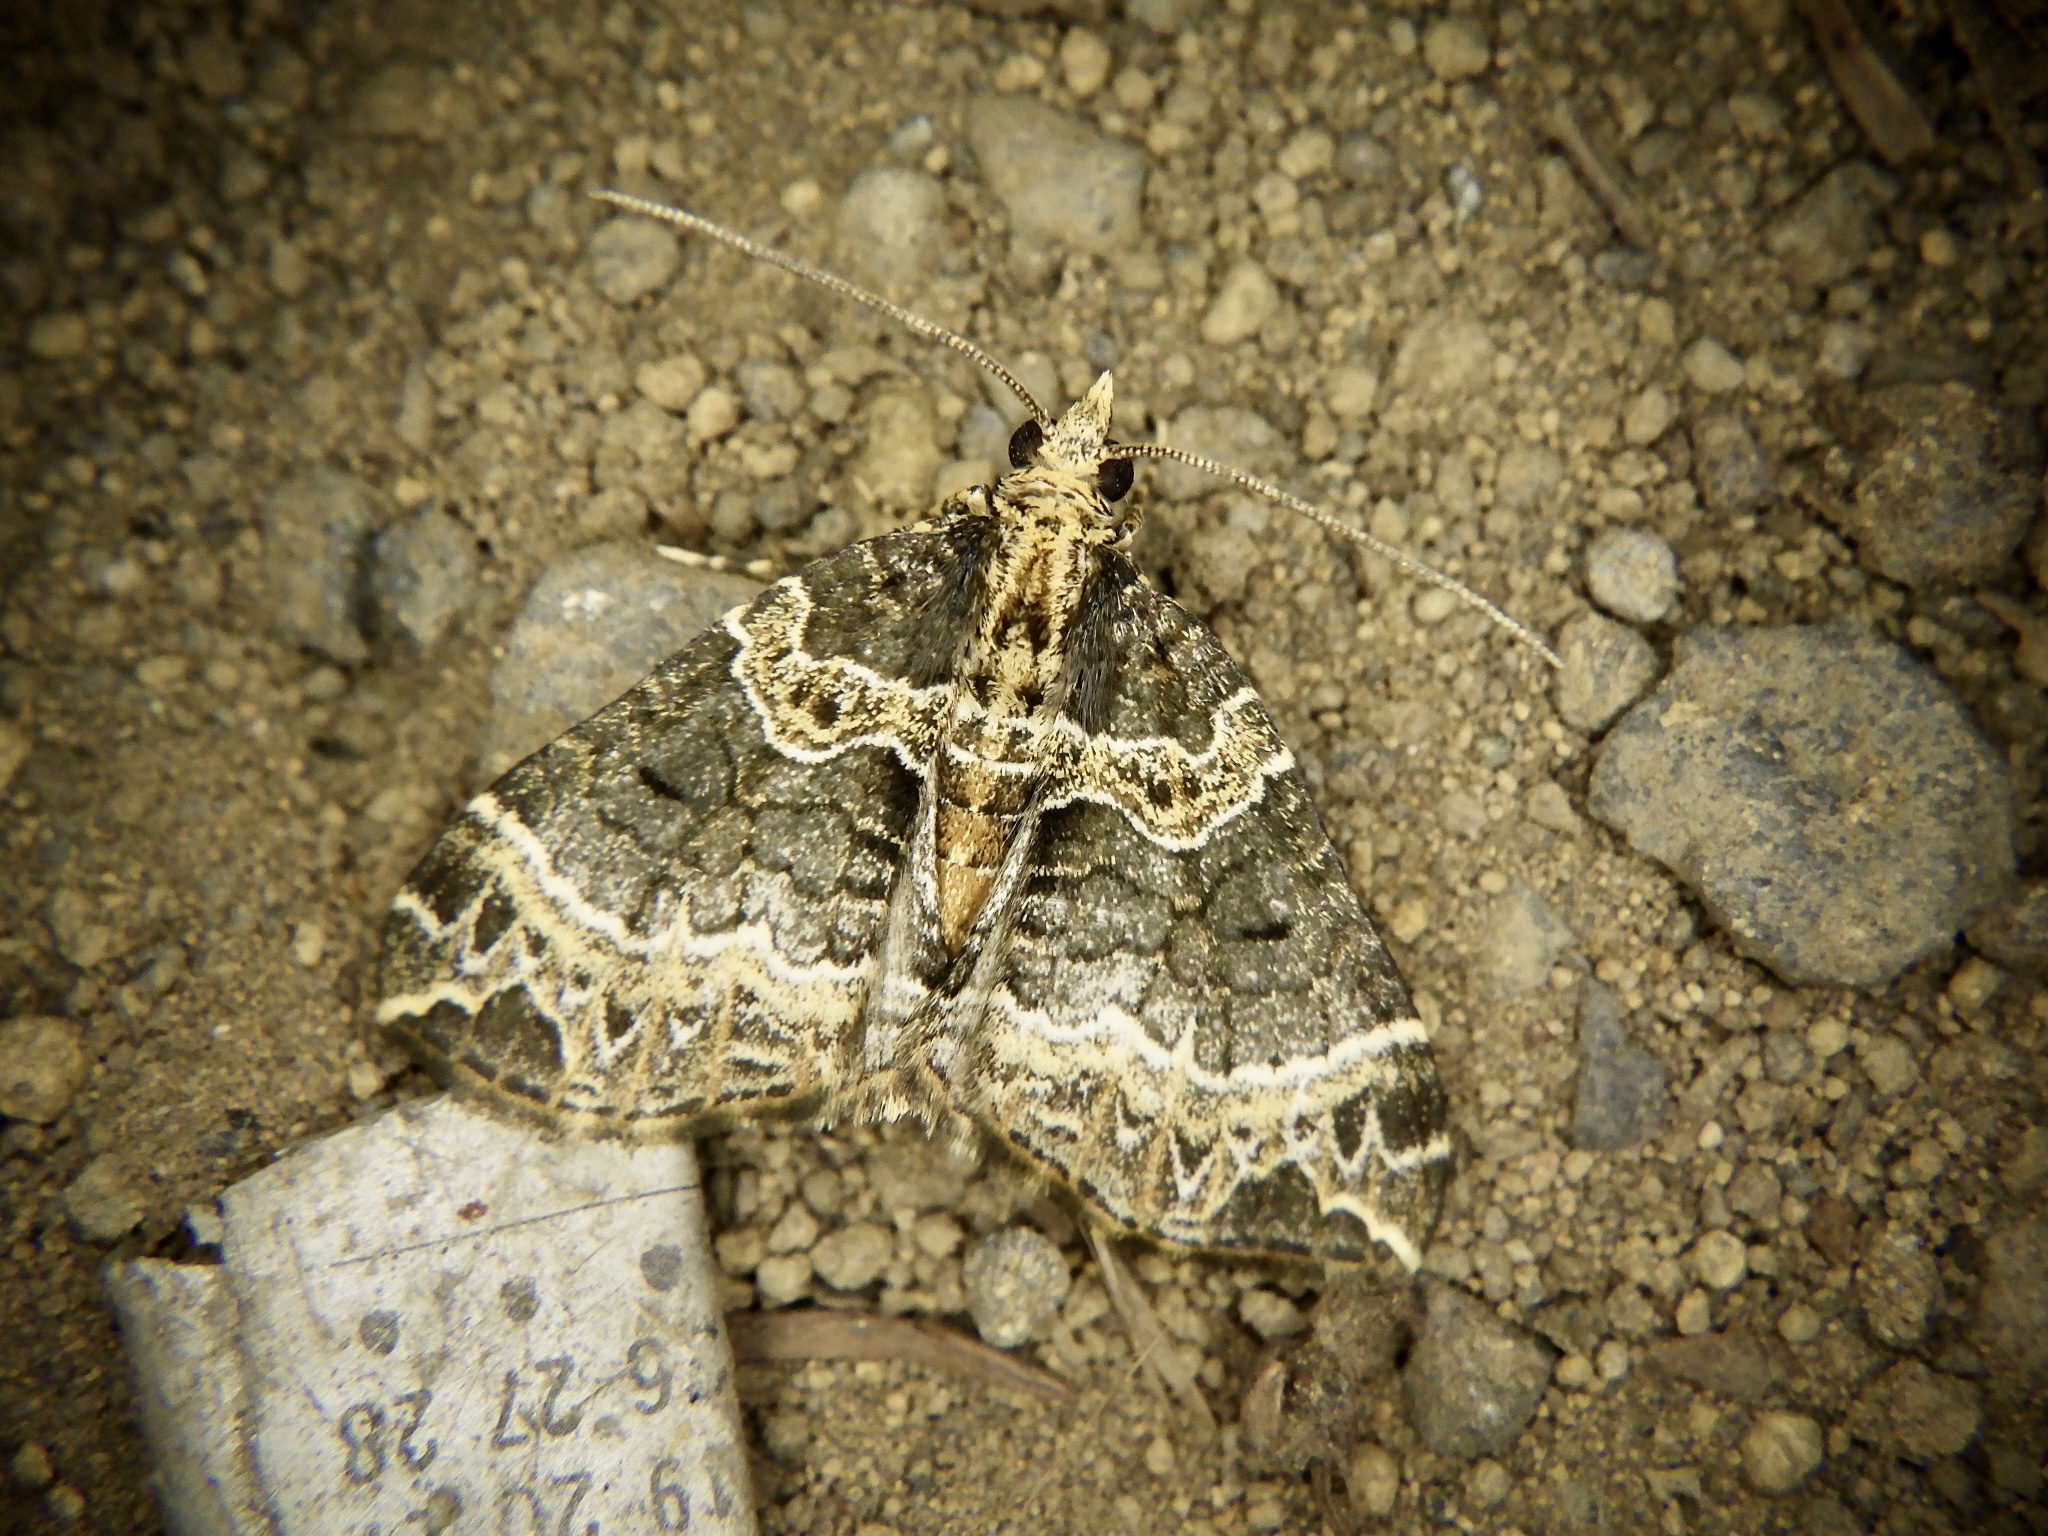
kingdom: Animalia
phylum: Arthropoda
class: Insecta
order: Lepidoptera
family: Geometridae
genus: Ecliptopera
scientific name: Ecliptopera umbrosaria
